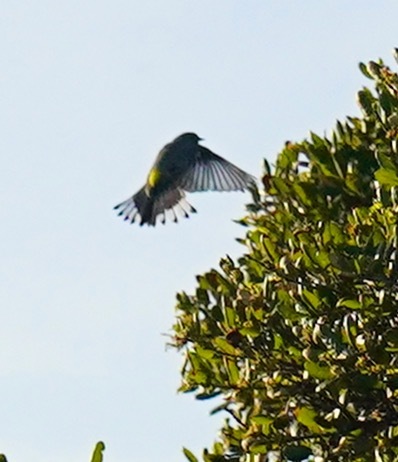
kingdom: Animalia
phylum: Chordata
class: Aves
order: Passeriformes
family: Parulidae
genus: Setophaga
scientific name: Setophaga coronata
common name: Myrtle warbler
